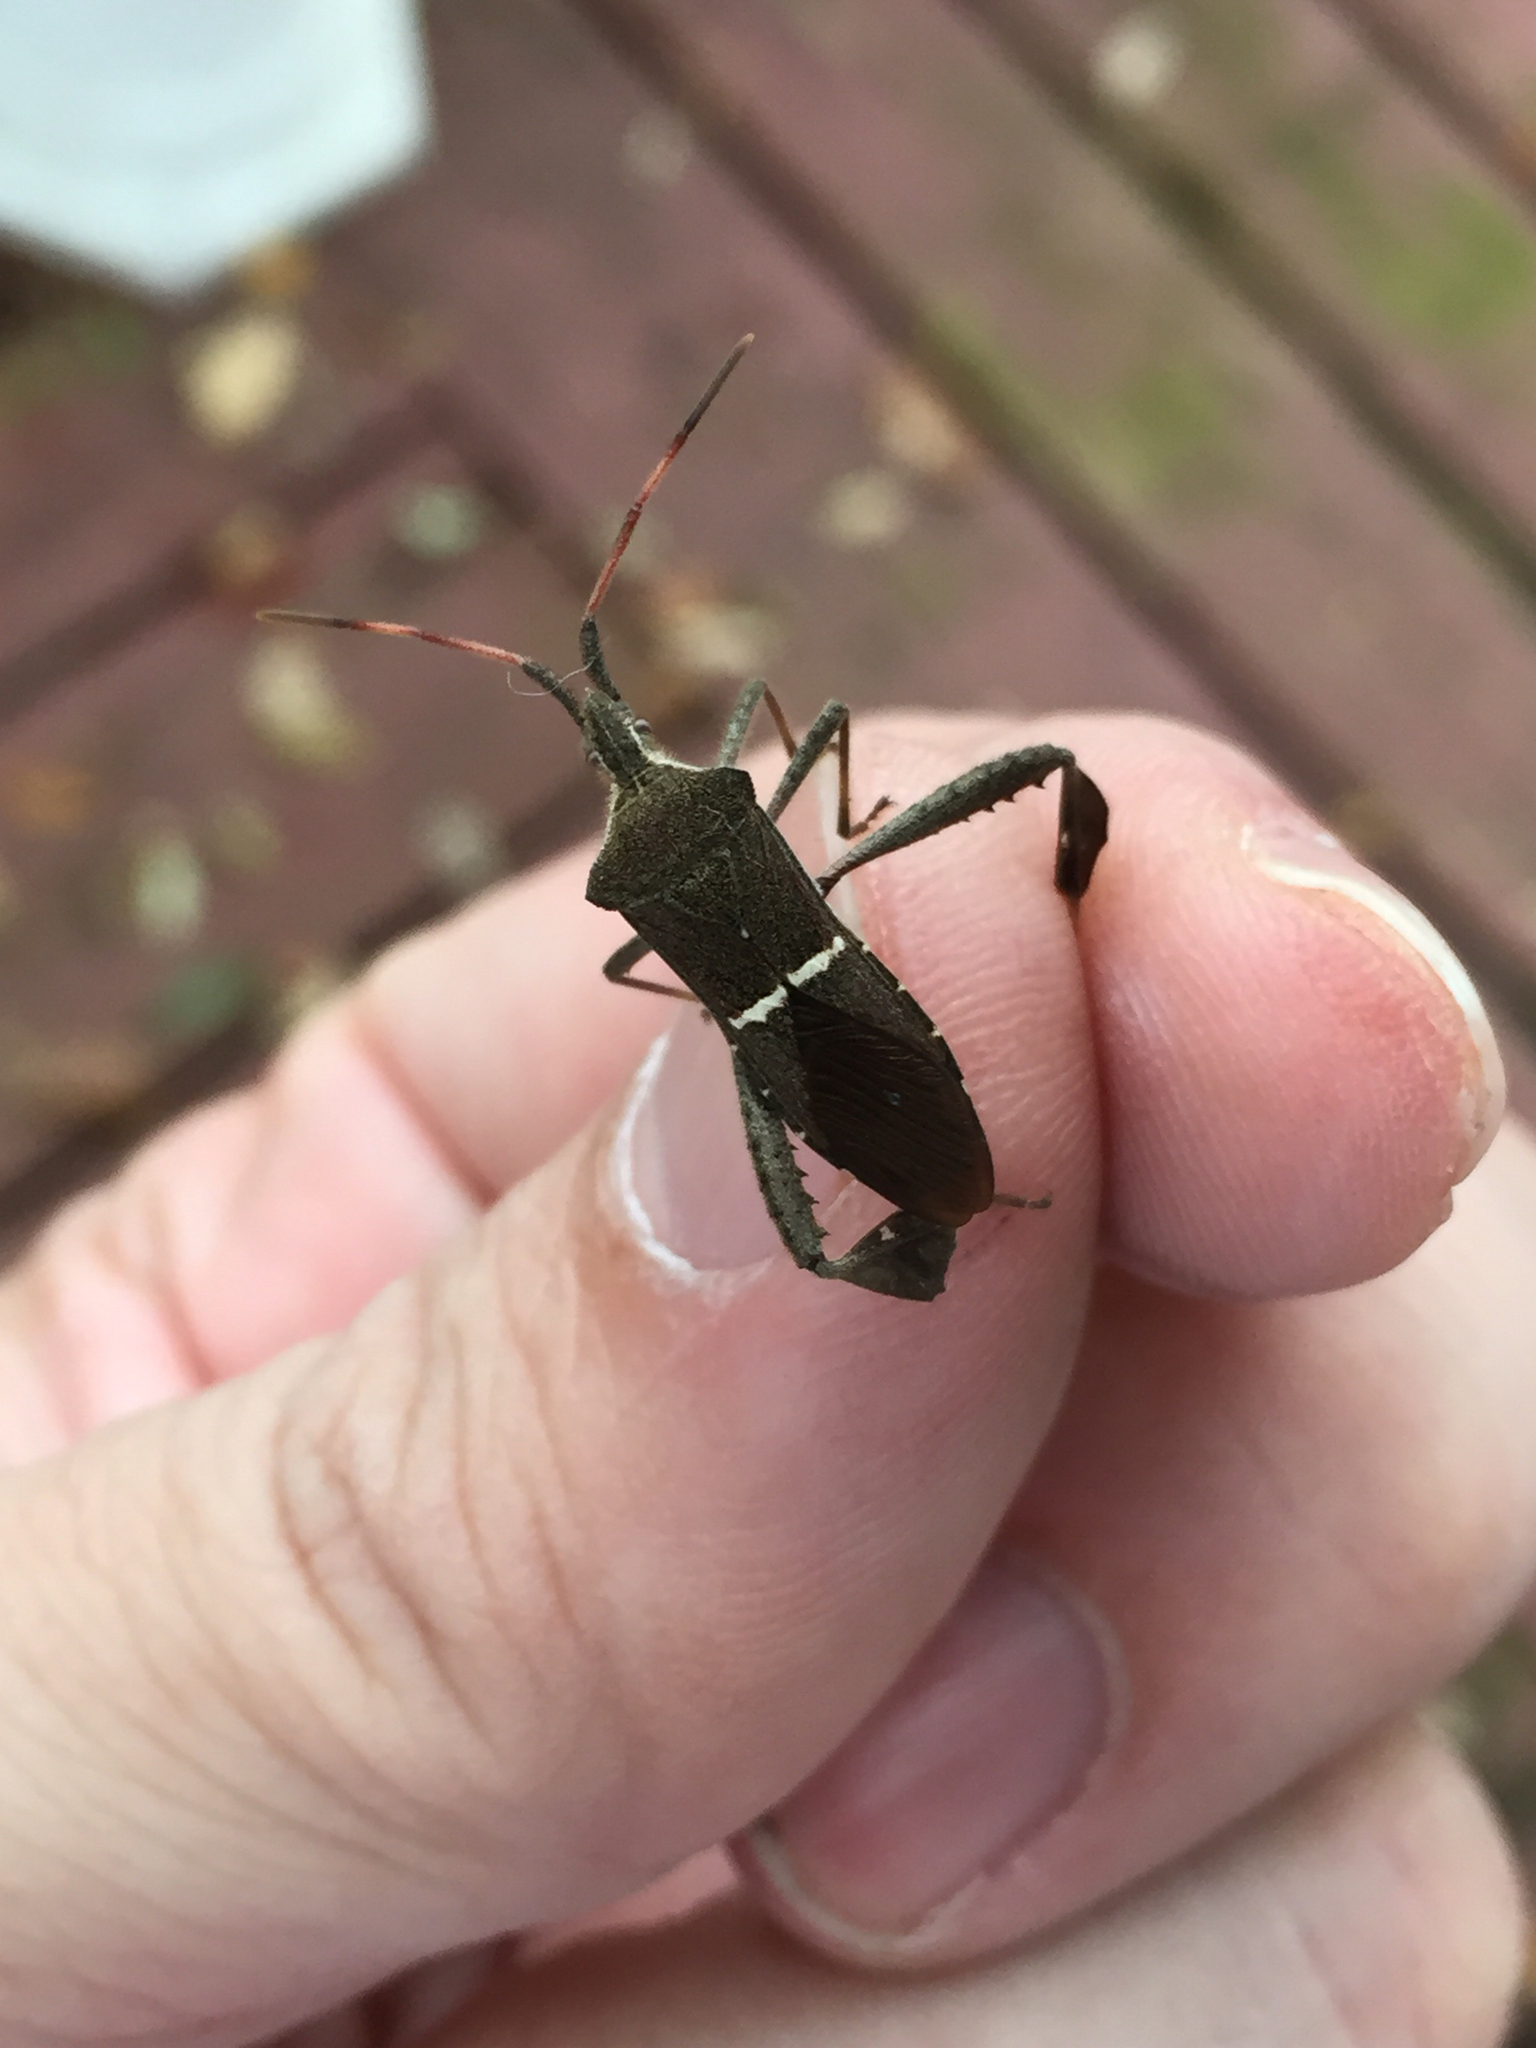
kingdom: Animalia
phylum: Arthropoda
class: Insecta
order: Hemiptera
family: Coreidae
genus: Leptoglossus
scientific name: Leptoglossus phyllopus
